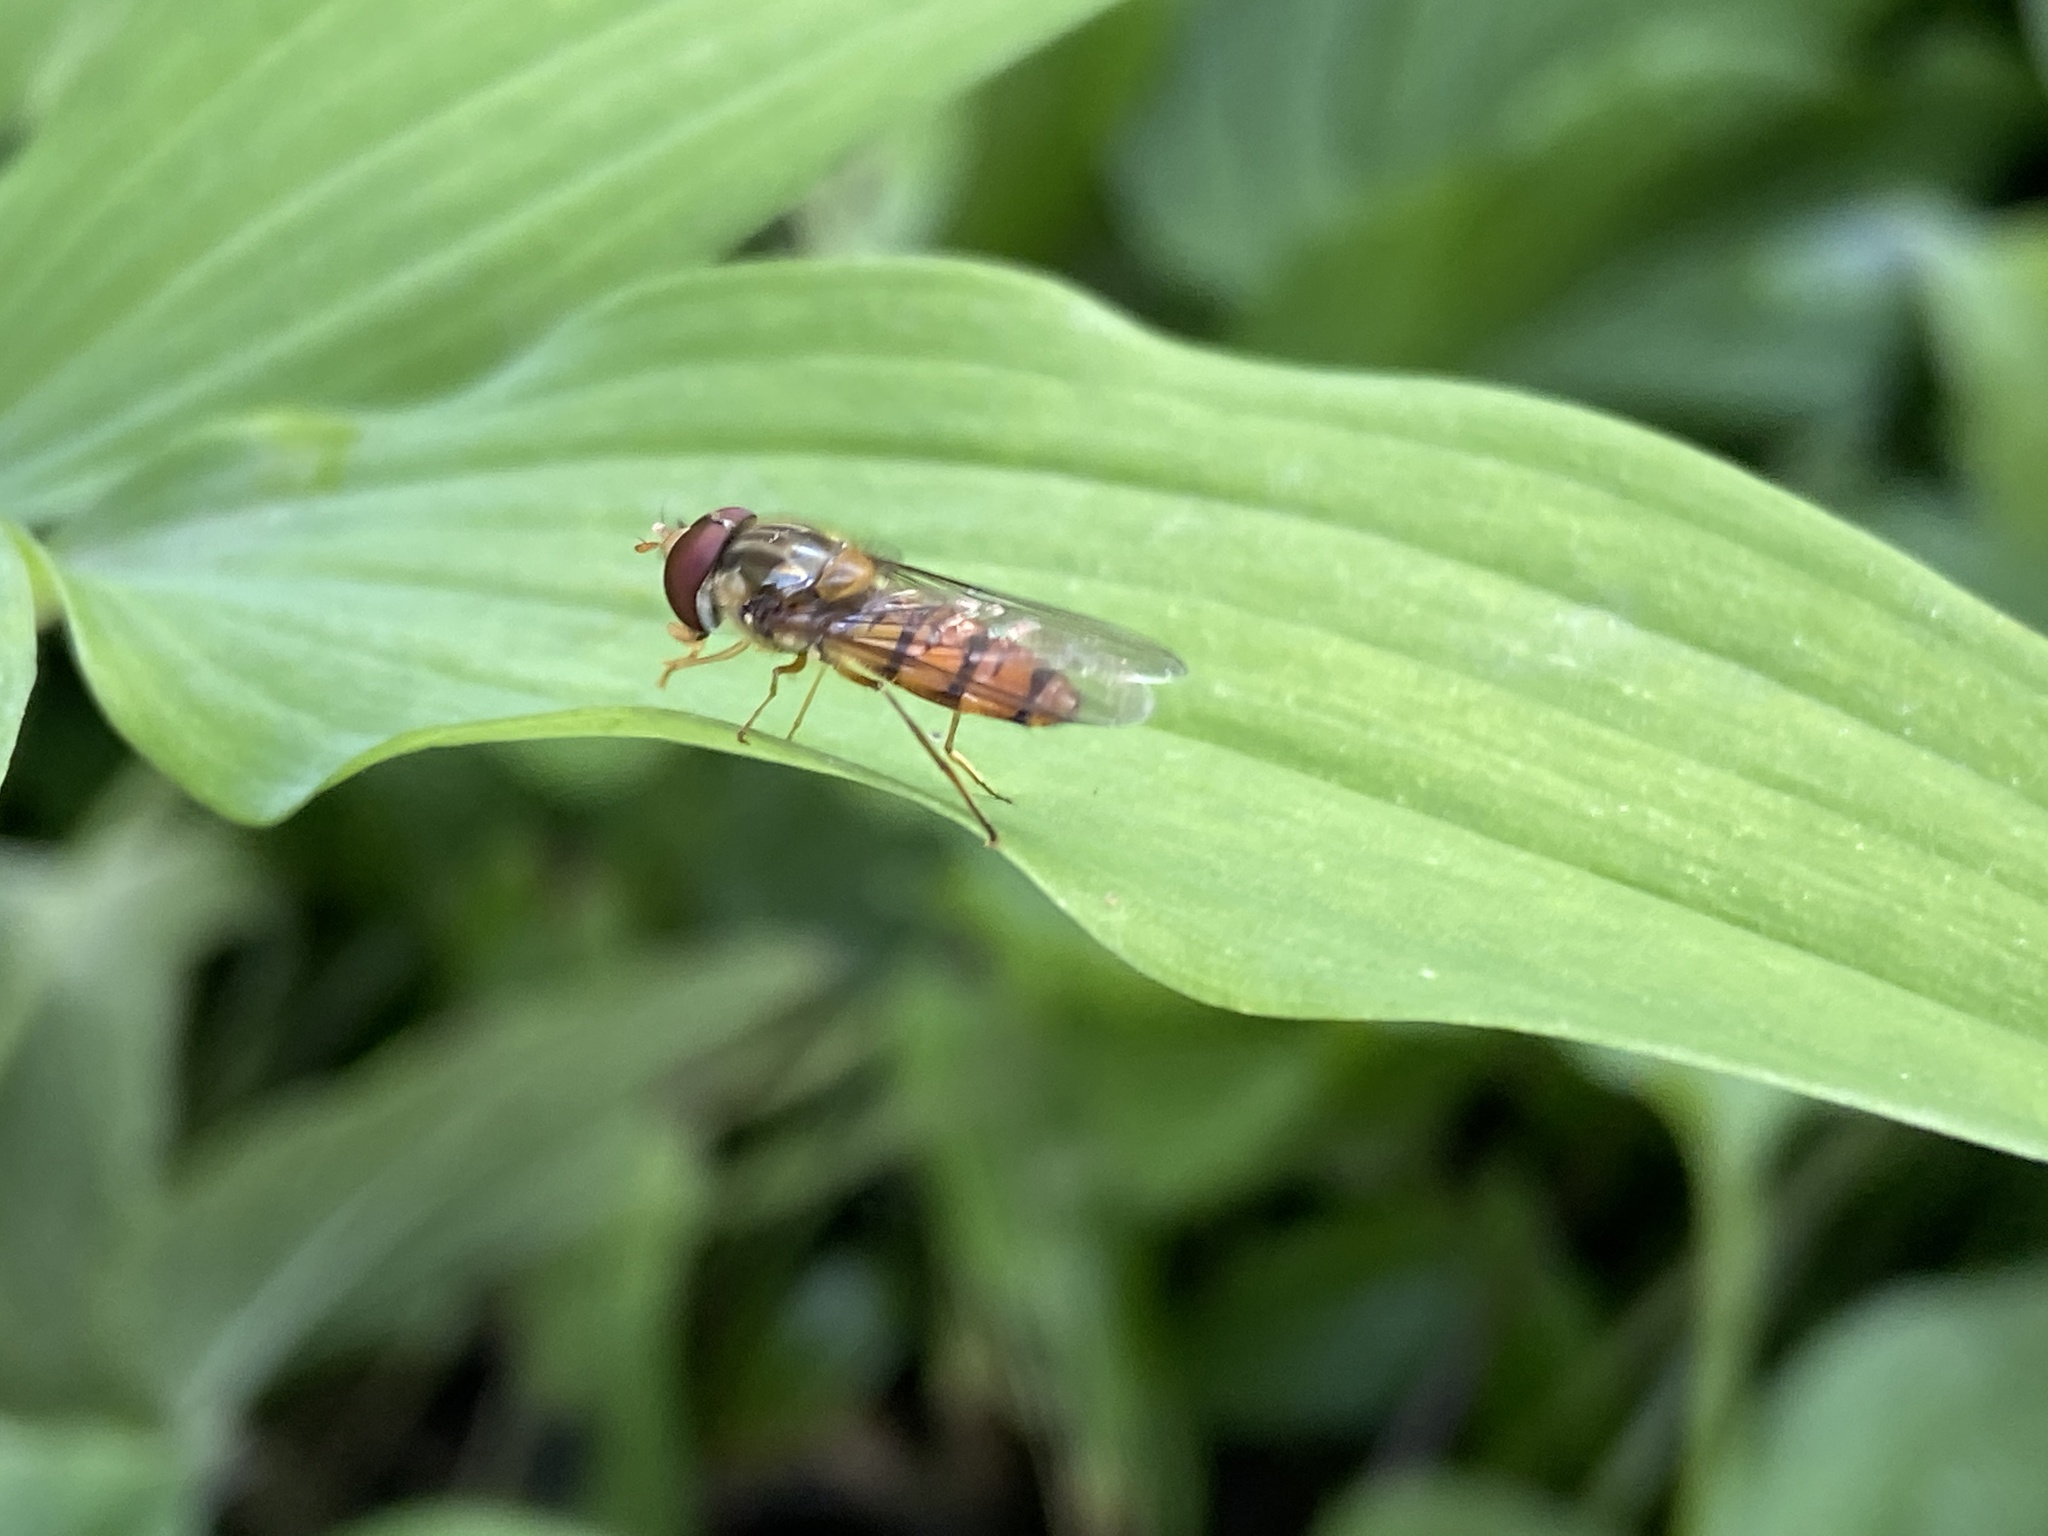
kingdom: Animalia
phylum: Arthropoda
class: Insecta
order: Diptera
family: Syrphidae
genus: Episyrphus
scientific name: Episyrphus balteatus
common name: Marmalade hoverfly
